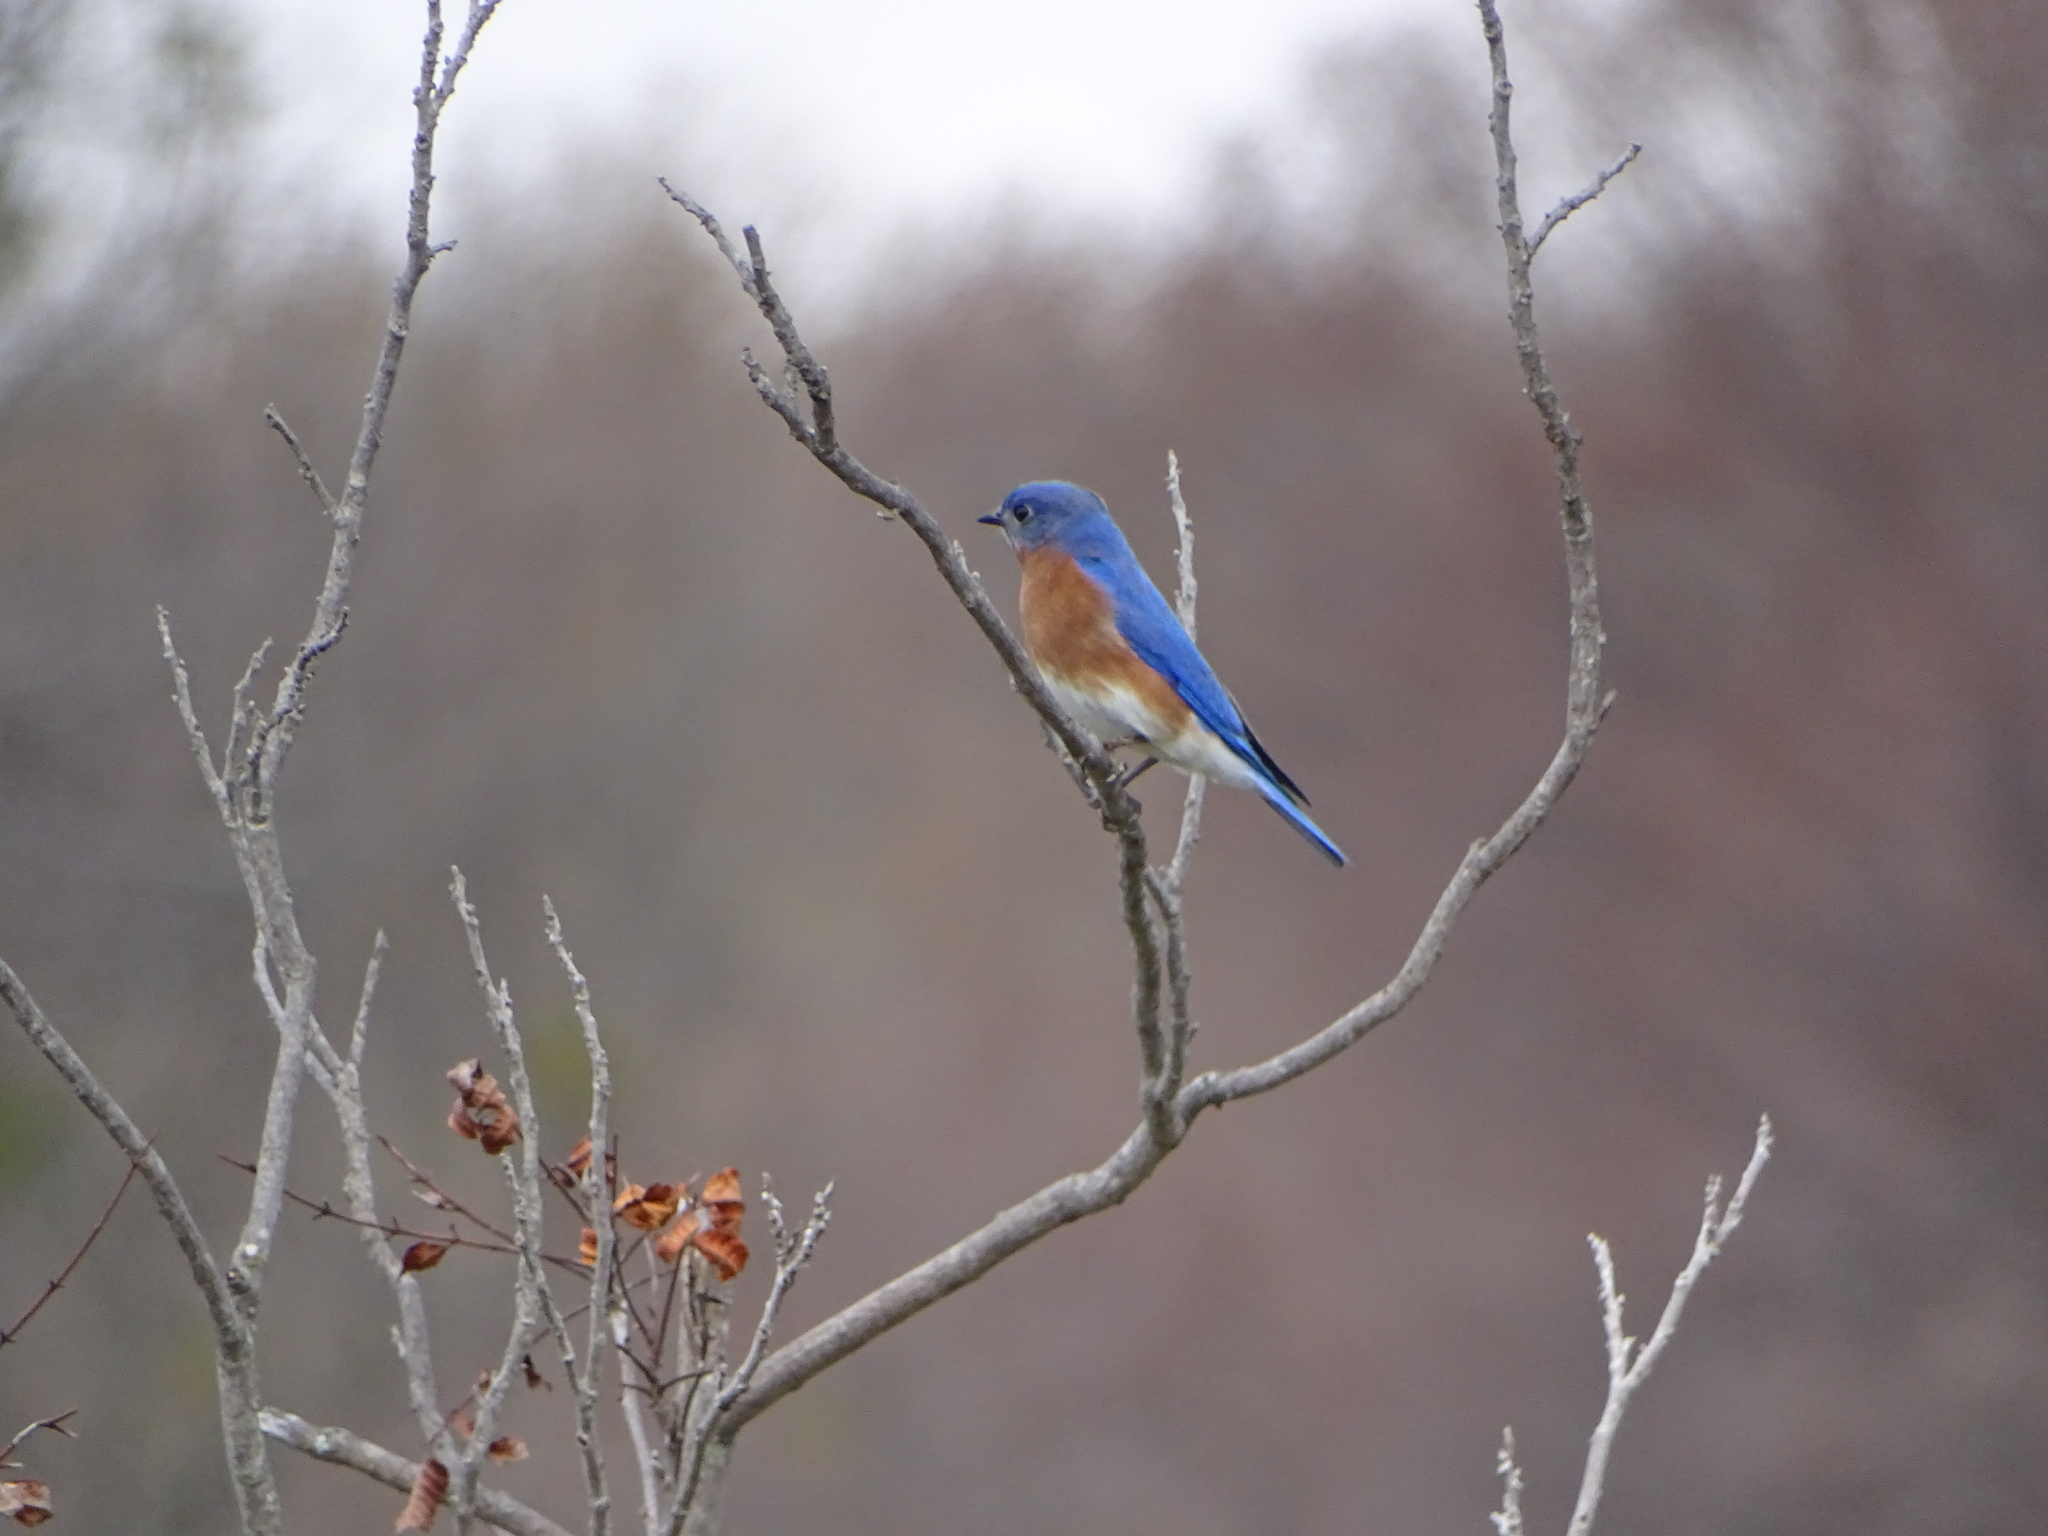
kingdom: Animalia
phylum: Chordata
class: Aves
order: Passeriformes
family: Turdidae
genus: Sialia
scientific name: Sialia sialis
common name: Eastern bluebird
